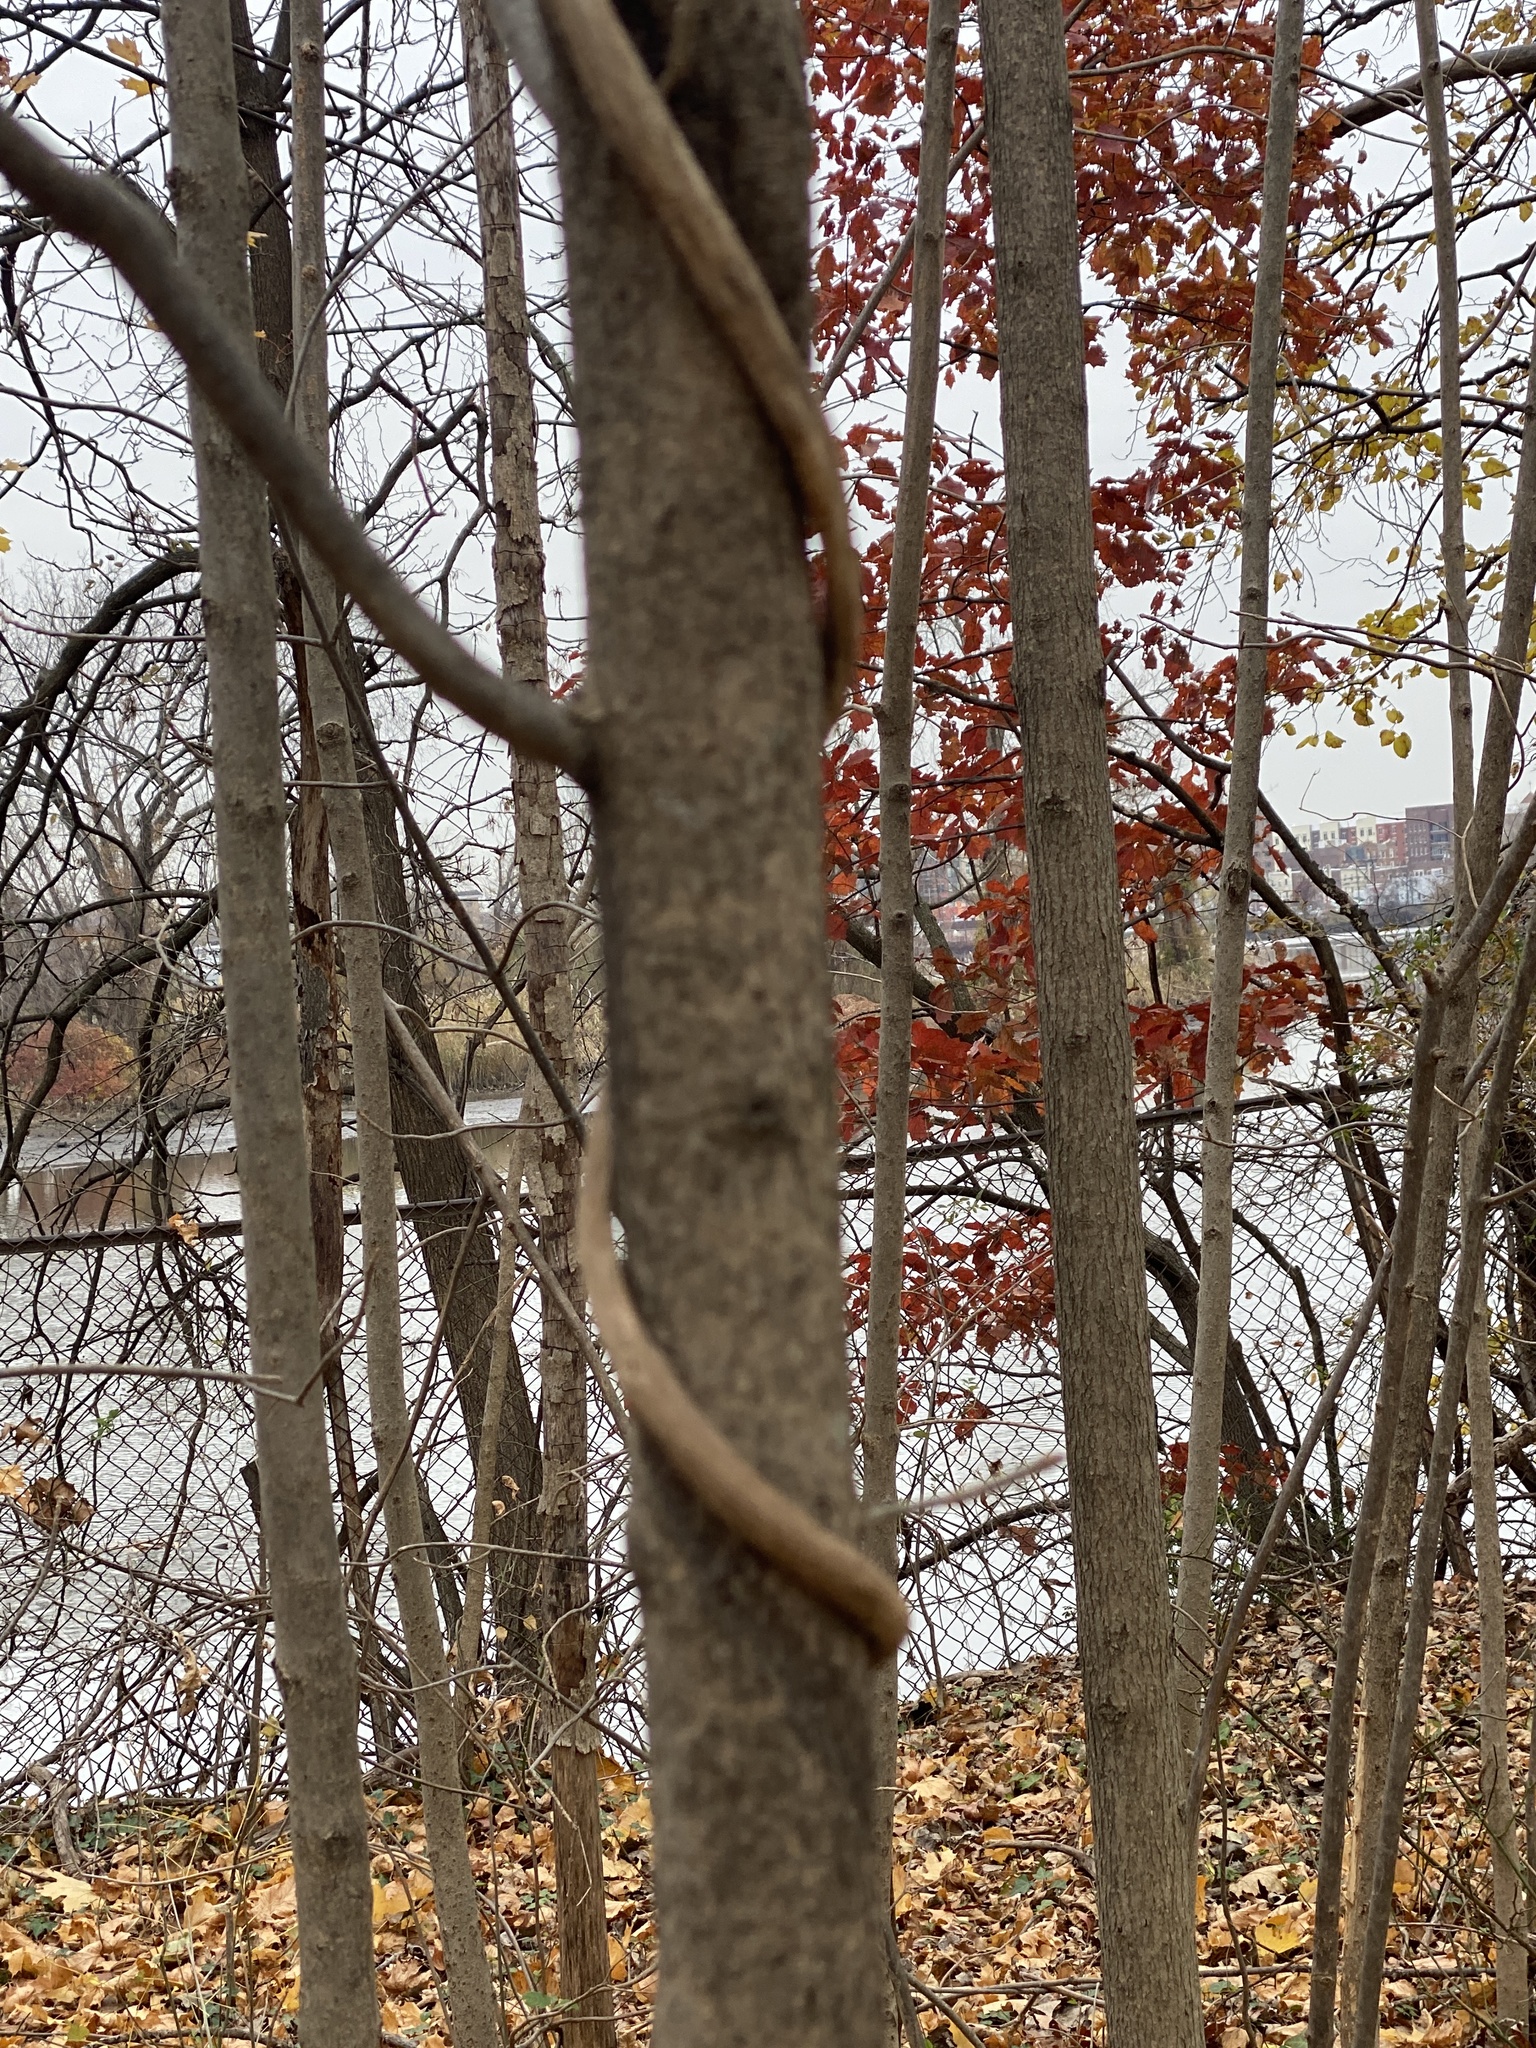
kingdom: Plantae
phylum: Tracheophyta
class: Magnoliopsida
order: Lamiales
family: Oleaceae
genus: Fraxinus
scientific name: Fraxinus nigra
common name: Black ash
